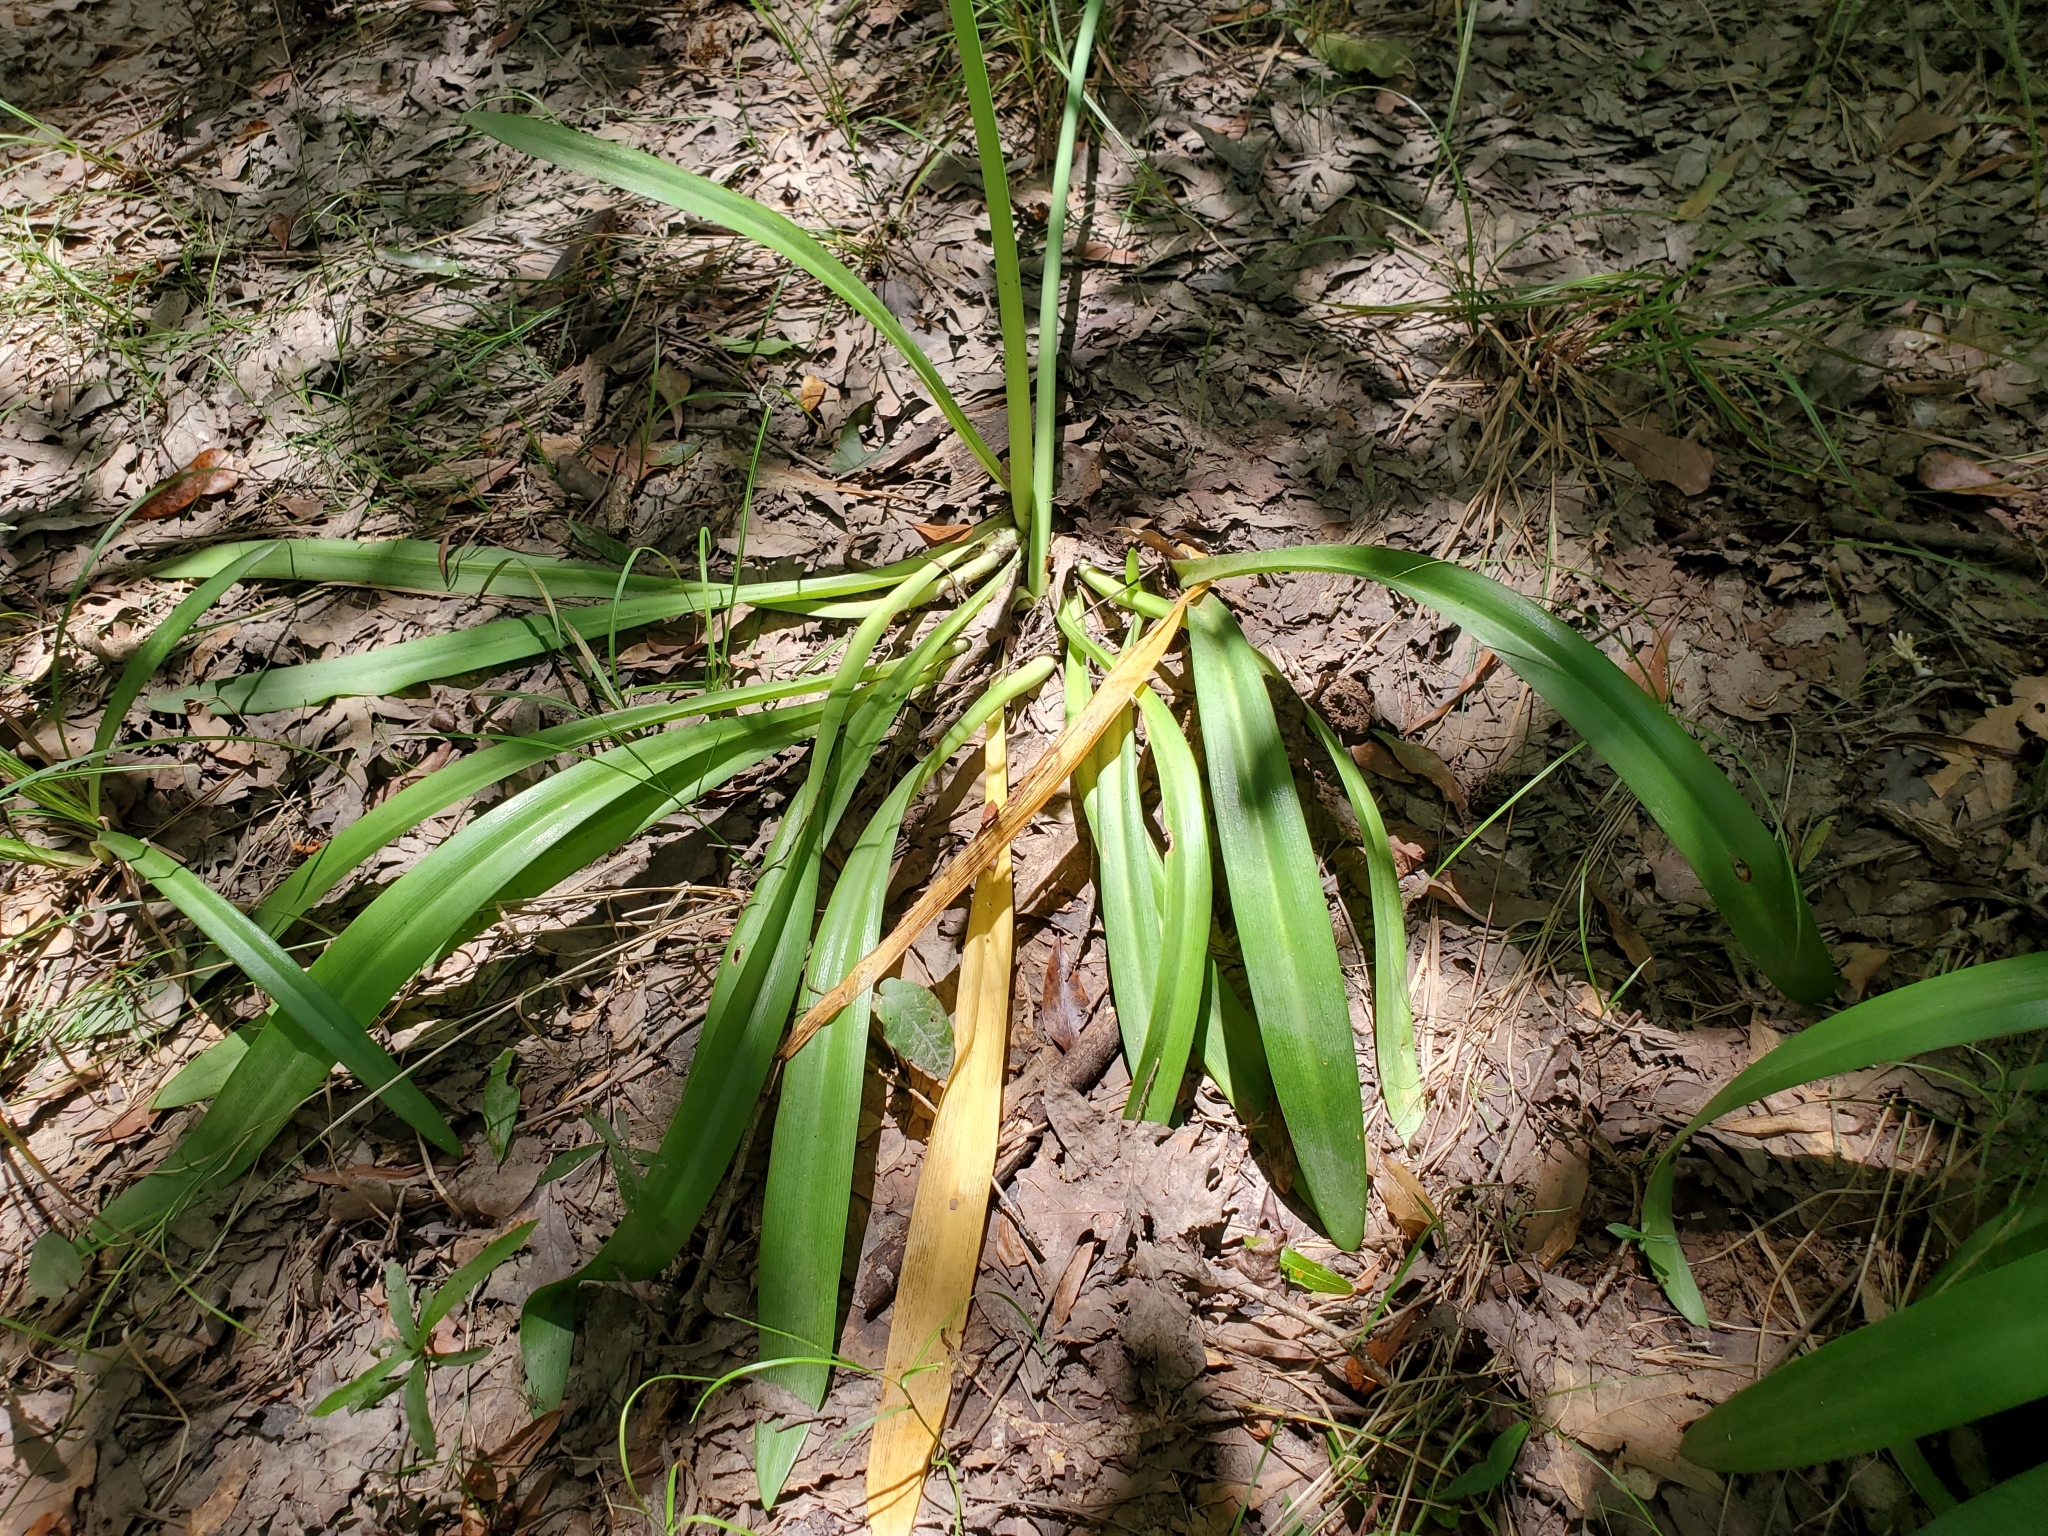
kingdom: Plantae
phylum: Tracheophyta
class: Liliopsida
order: Asparagales
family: Amaryllidaceae
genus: Hymenocallis
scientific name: Hymenocallis occidentalis
